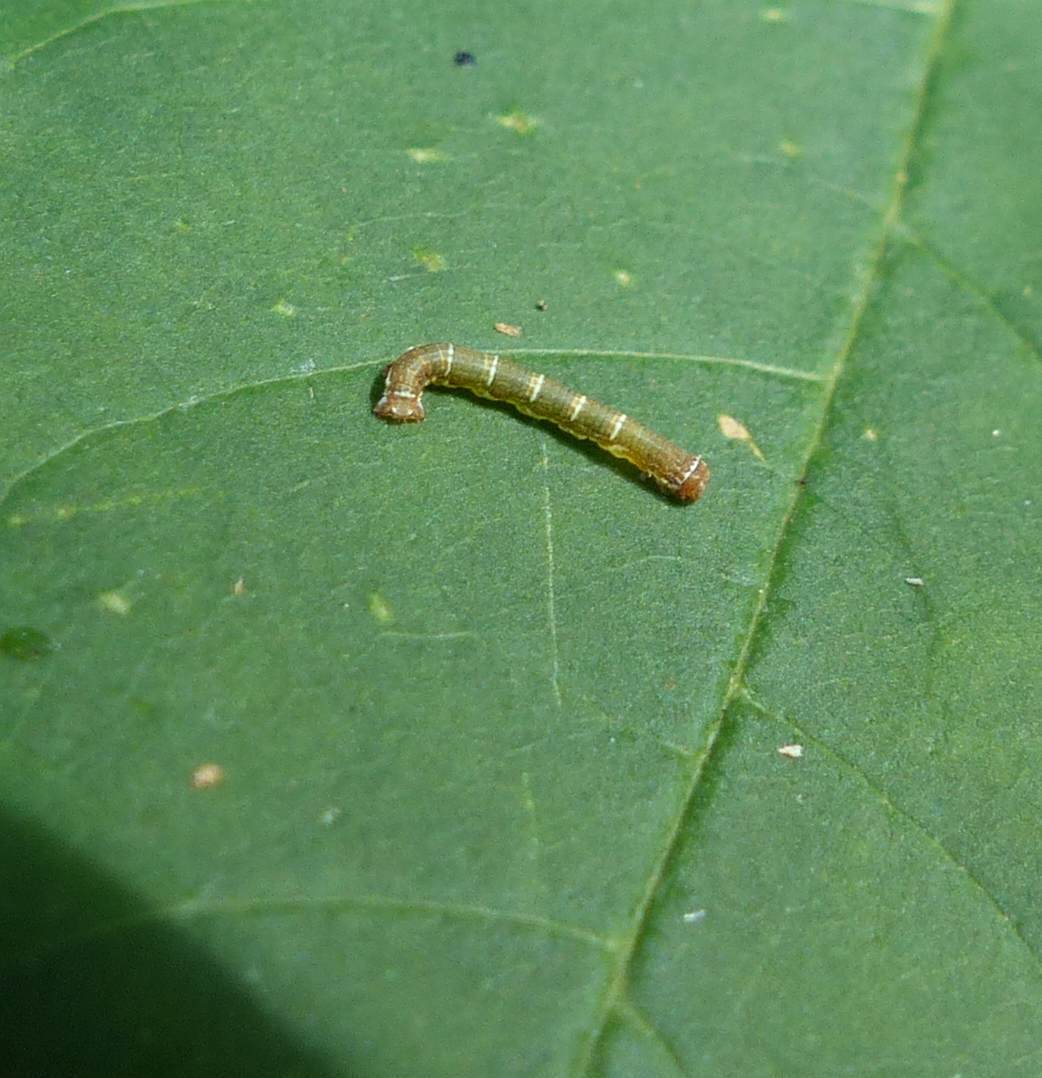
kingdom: Animalia
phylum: Arthropoda
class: Insecta
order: Lepidoptera
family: Geometridae
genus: Hypagyrtis
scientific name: Hypagyrtis unipunctata
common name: One-spotted variant
